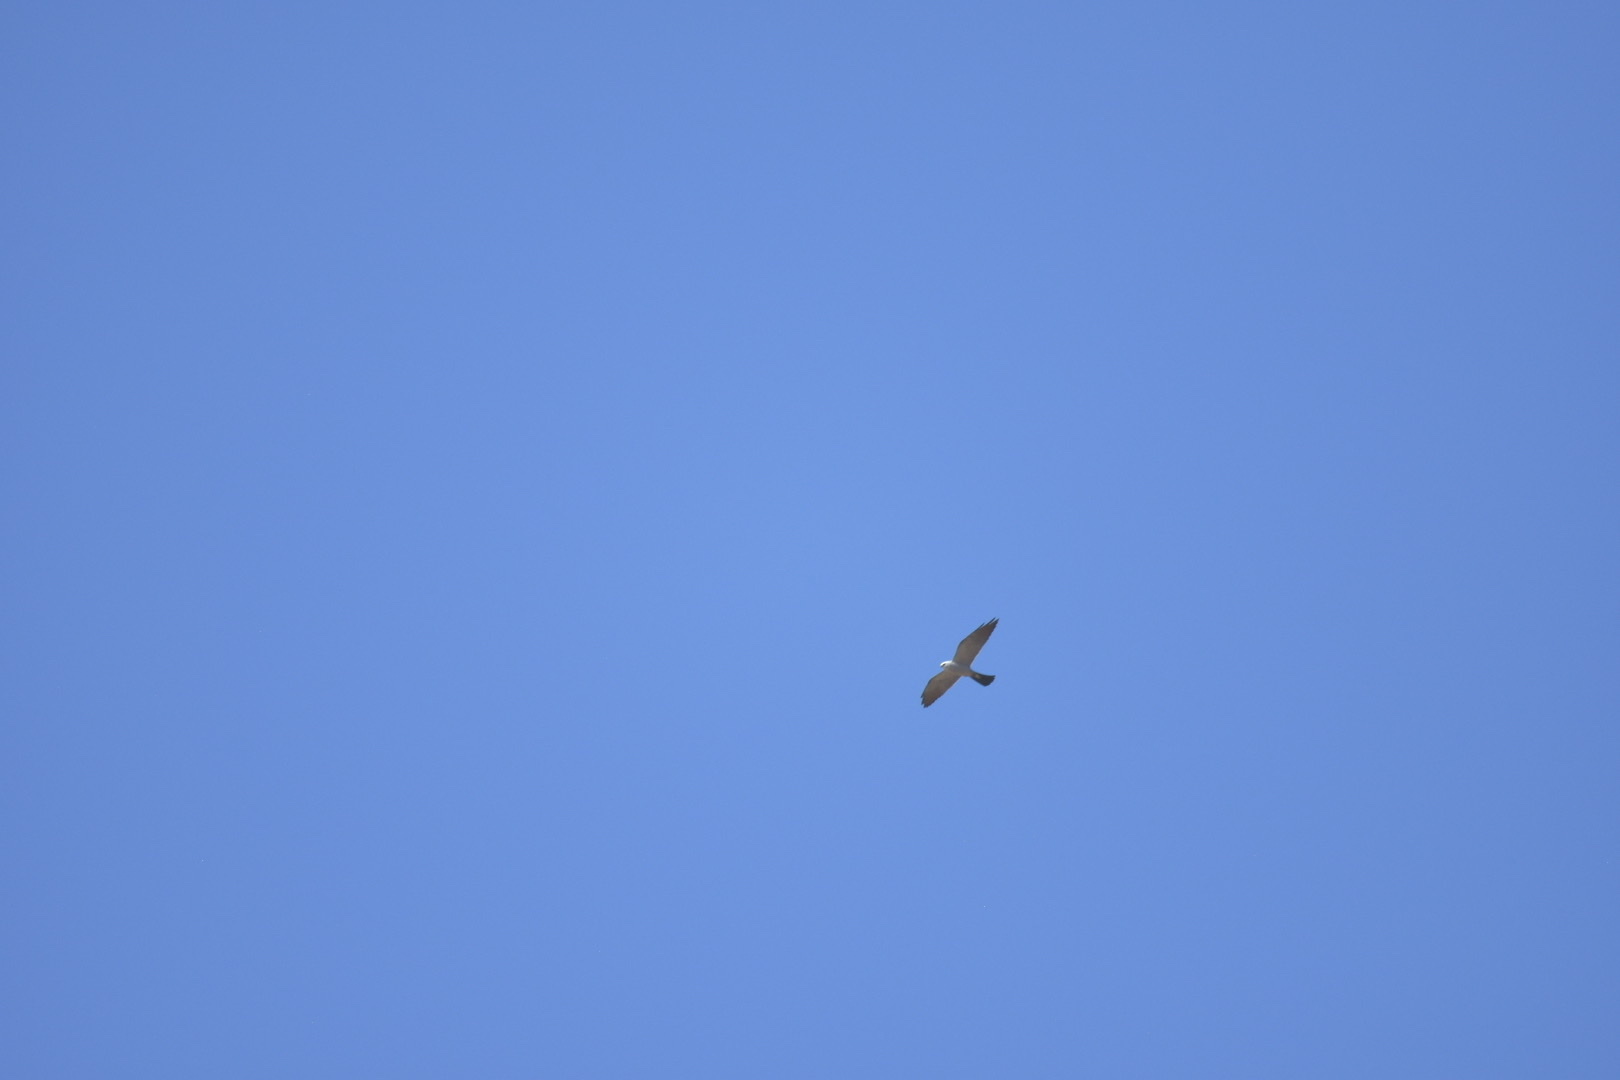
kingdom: Animalia
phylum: Chordata
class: Aves
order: Accipitriformes
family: Accipitridae
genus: Ictinia
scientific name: Ictinia mississippiensis
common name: Mississippi kite
